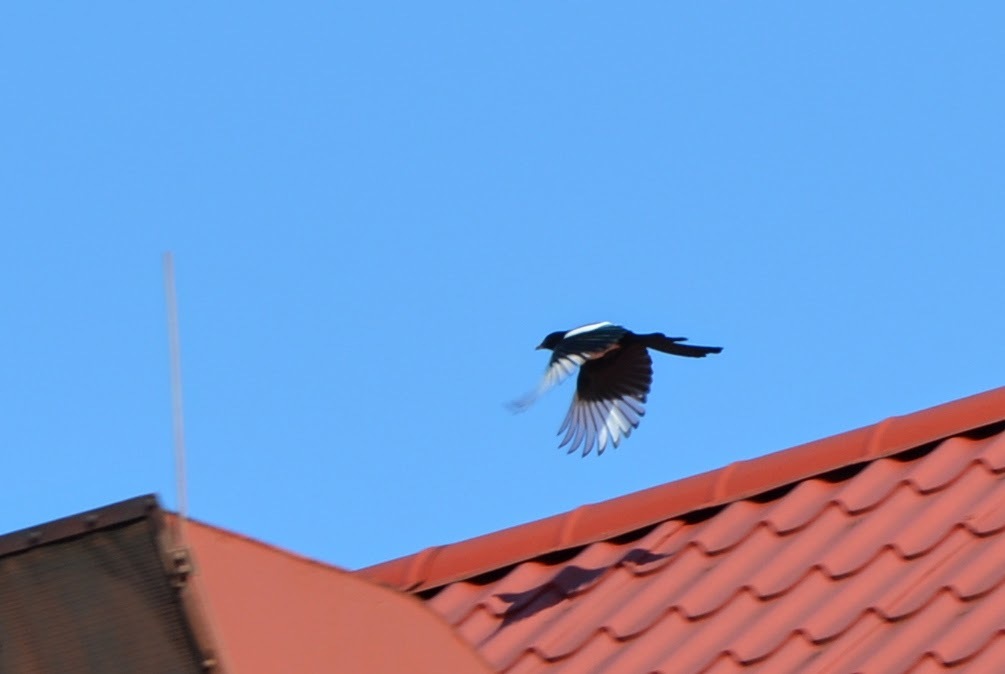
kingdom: Animalia
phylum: Chordata
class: Aves
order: Passeriformes
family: Corvidae
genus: Pica
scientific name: Pica pica
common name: Eurasian magpie
